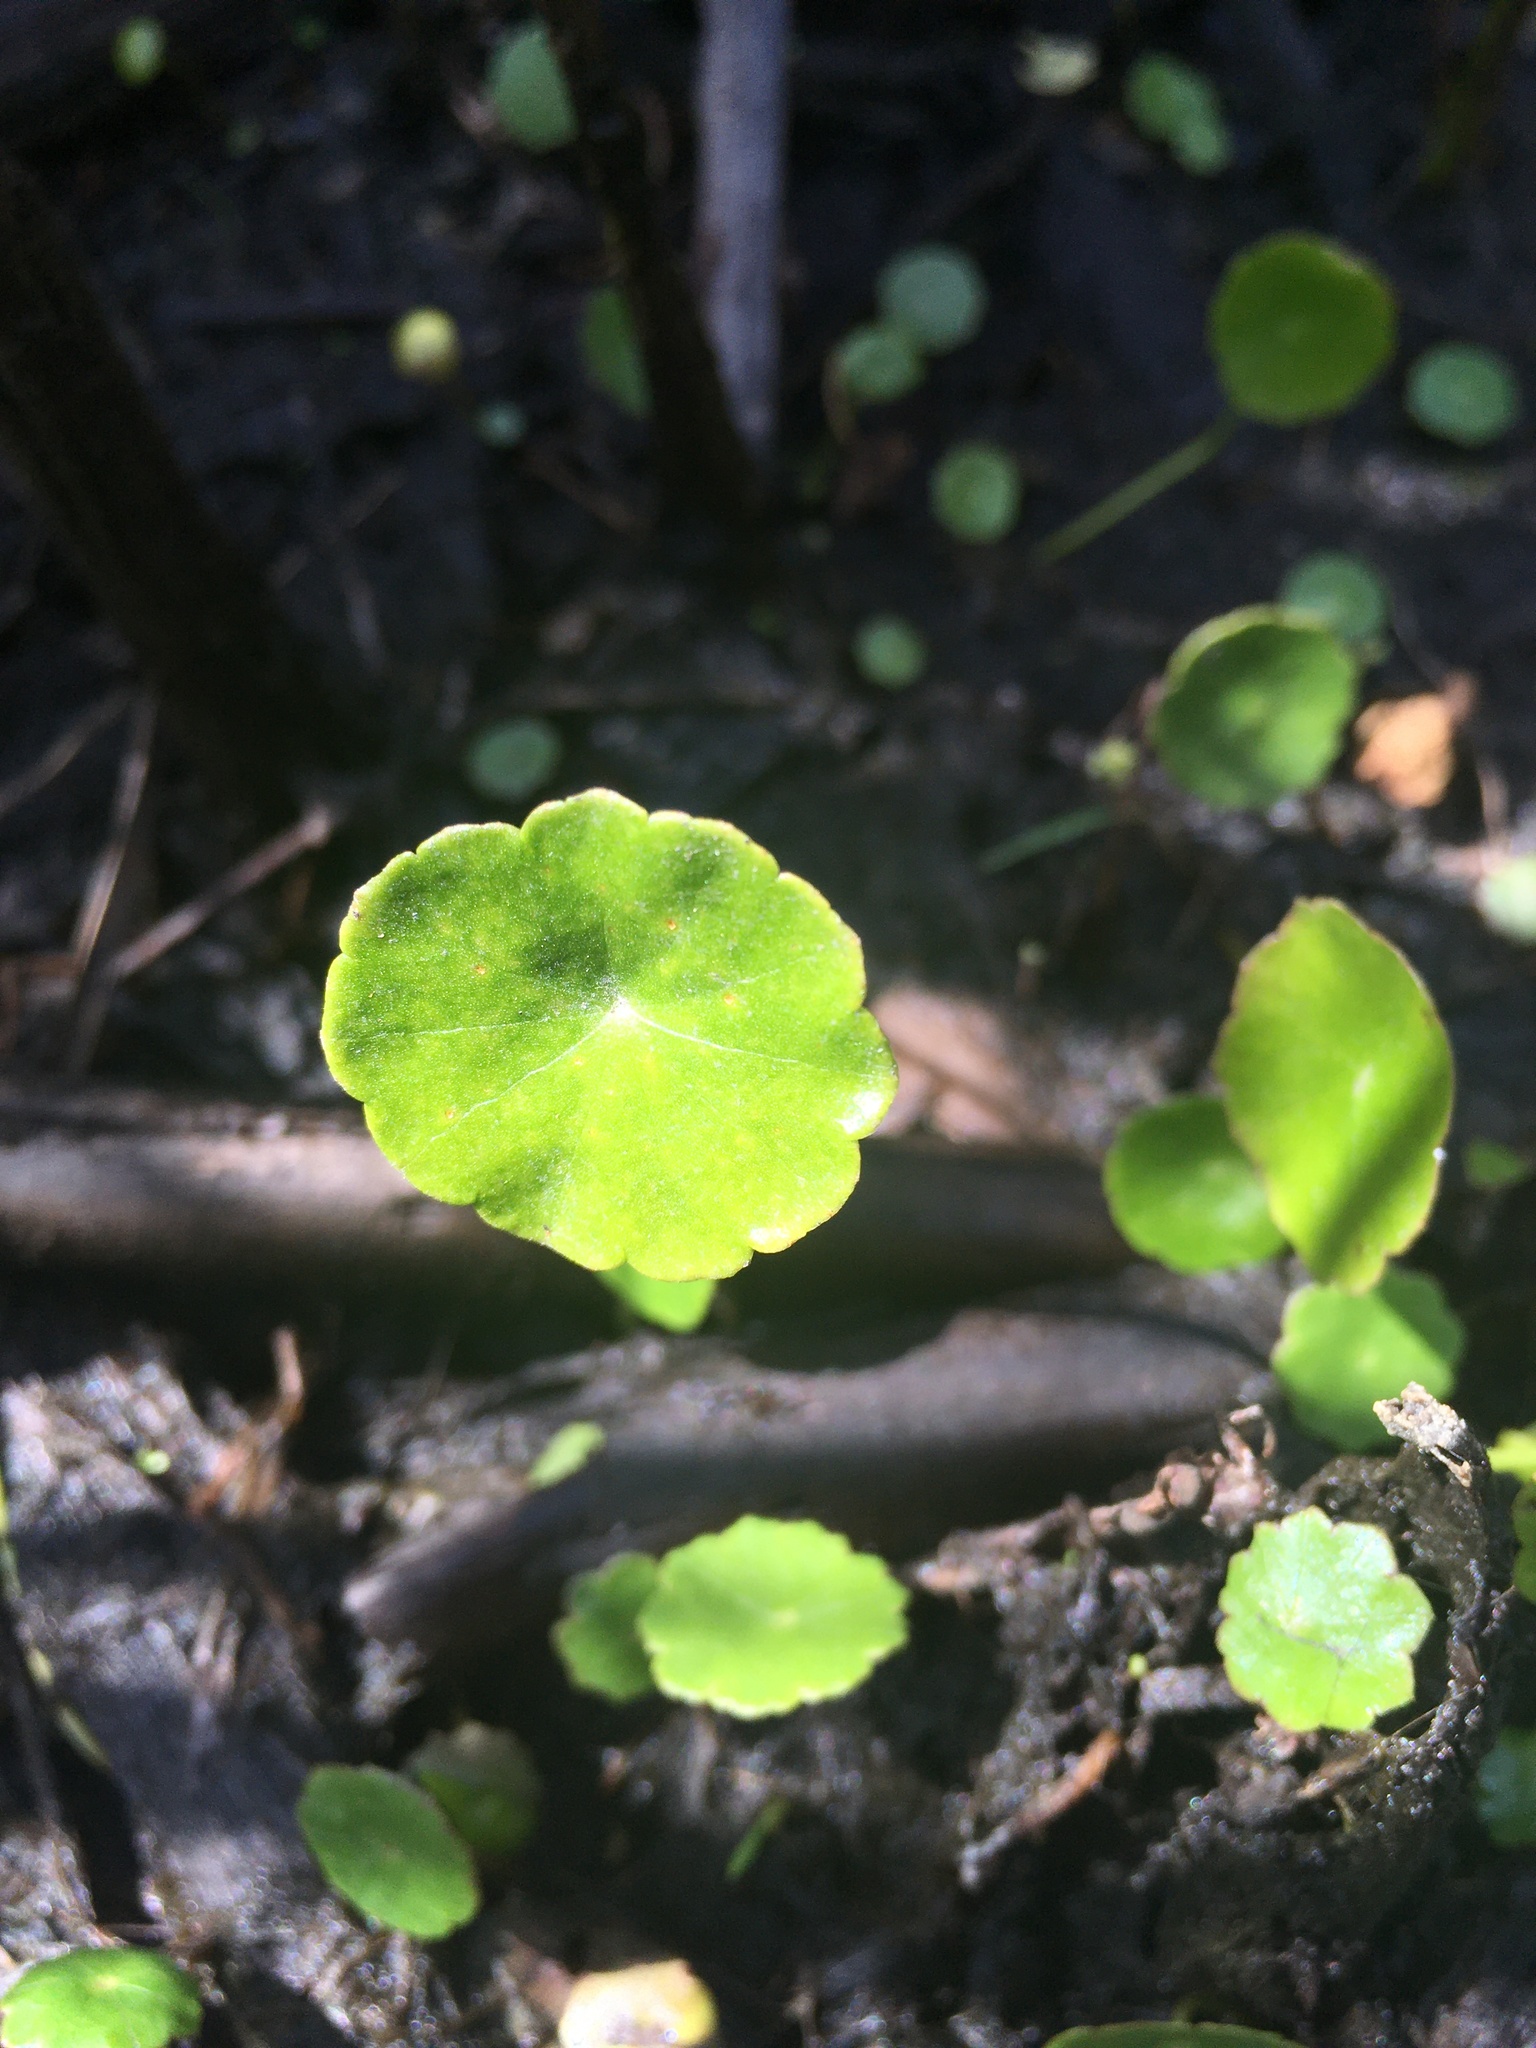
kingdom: Plantae
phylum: Tracheophyta
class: Magnoliopsida
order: Apiales
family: Araliaceae
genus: Hydrocotyle
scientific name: Hydrocotyle verticillata
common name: Whorled marshpennywort
